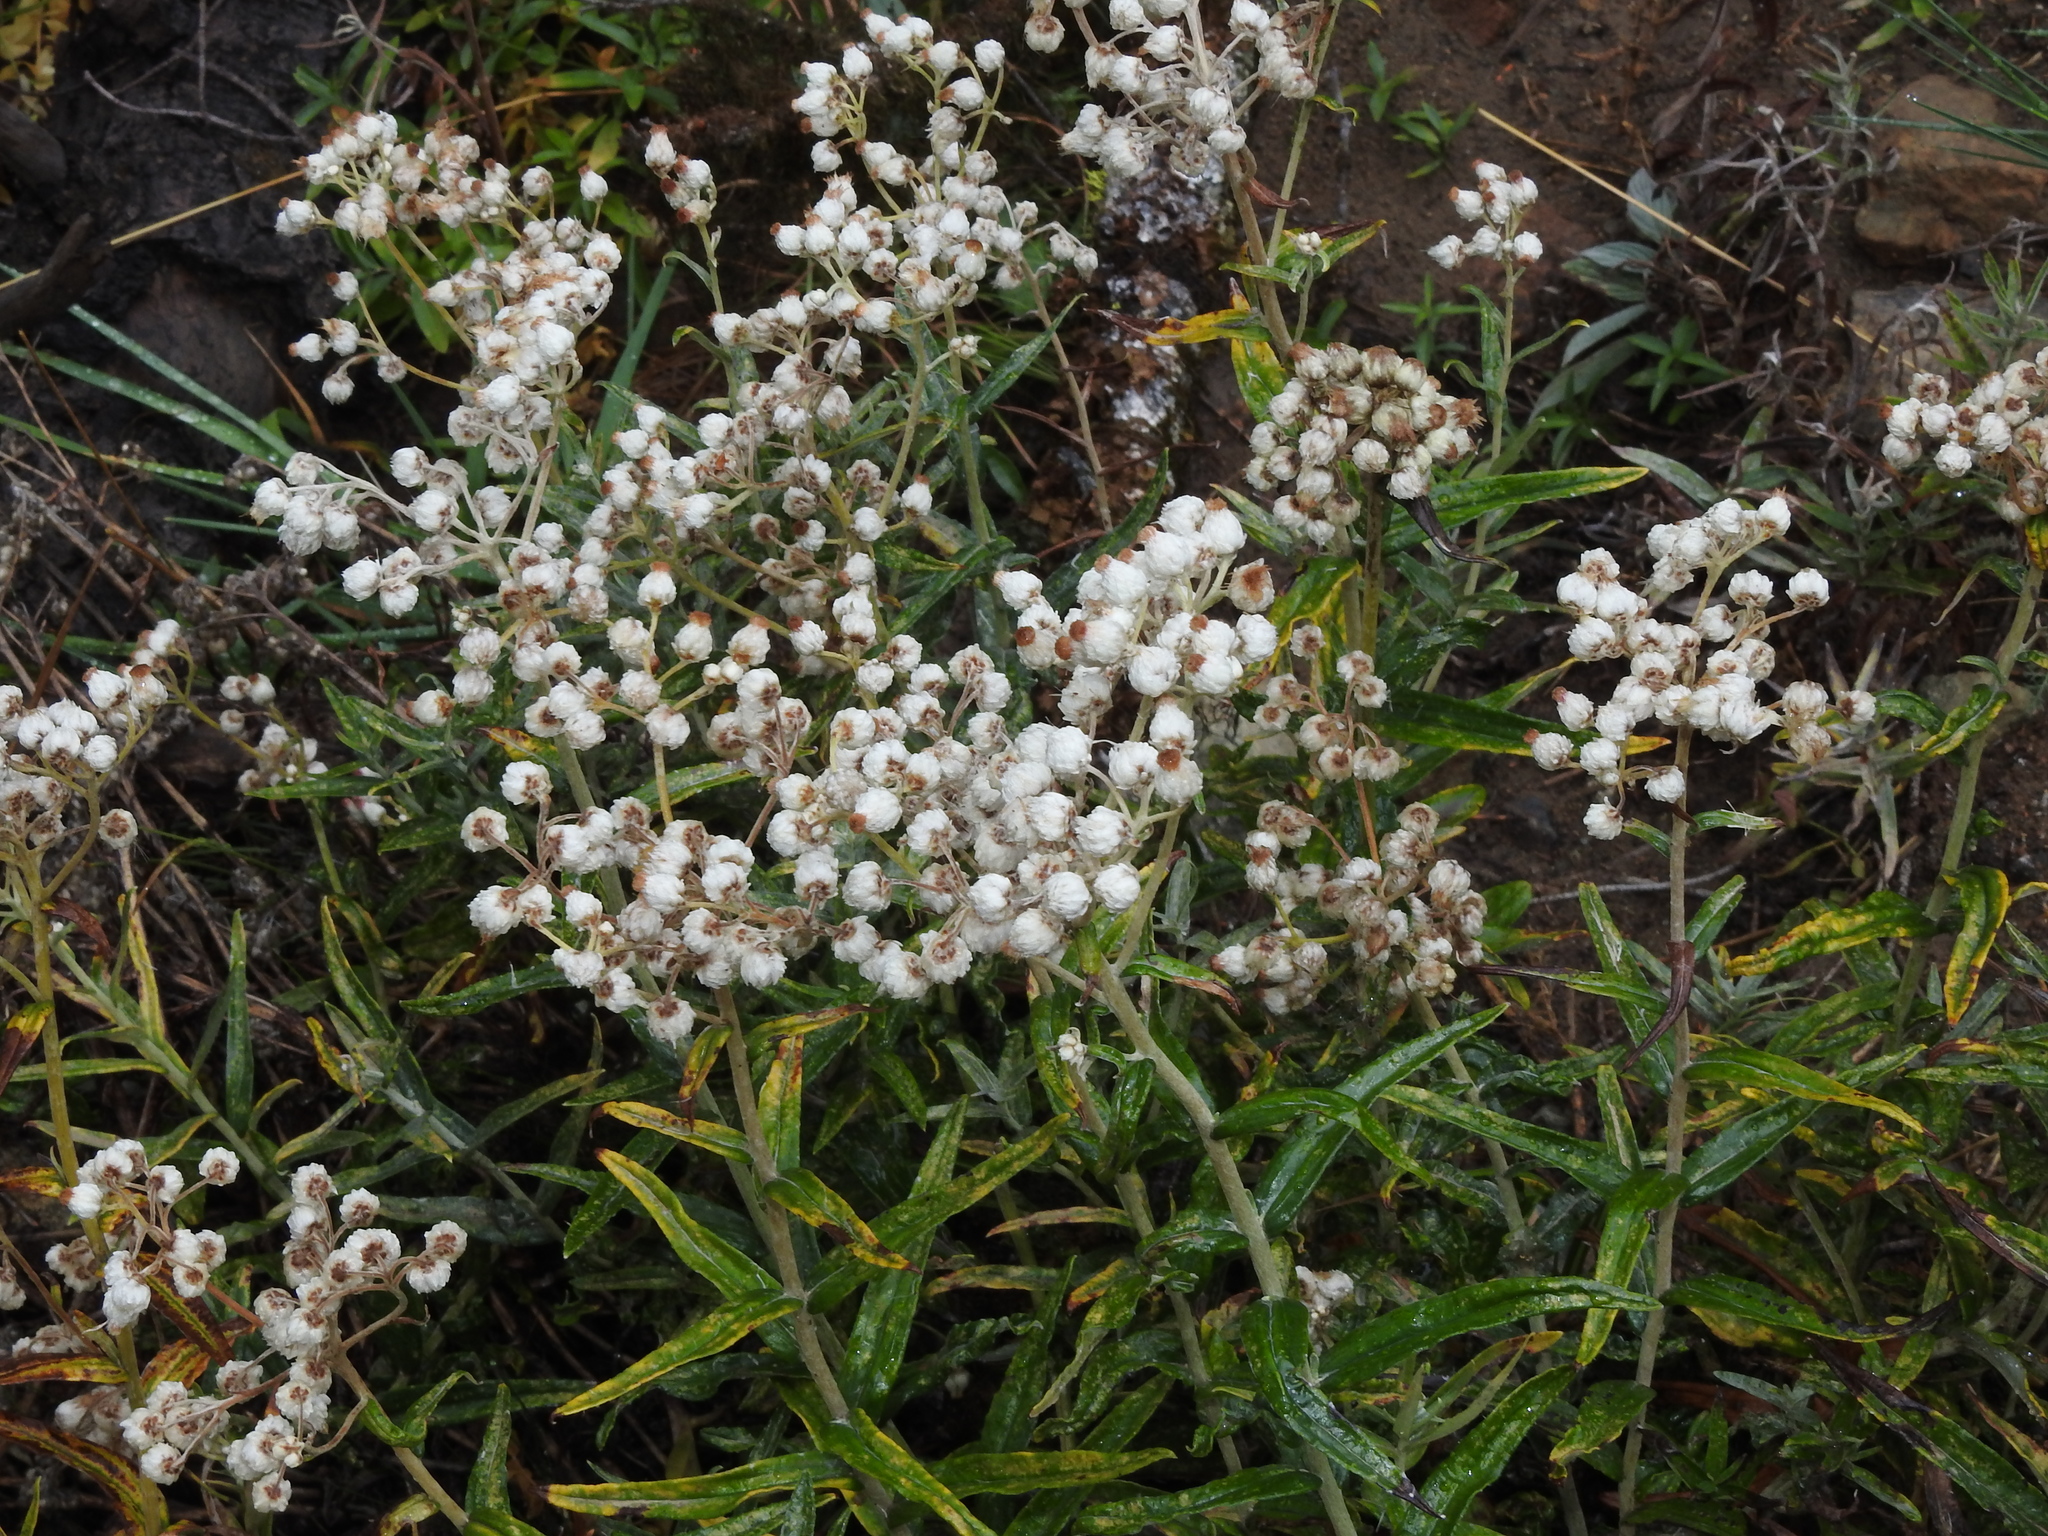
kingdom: Plantae
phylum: Tracheophyta
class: Magnoliopsida
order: Asterales
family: Asteraceae
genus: Anaphalis
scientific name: Anaphalis margaritacea
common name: Pearly everlasting
